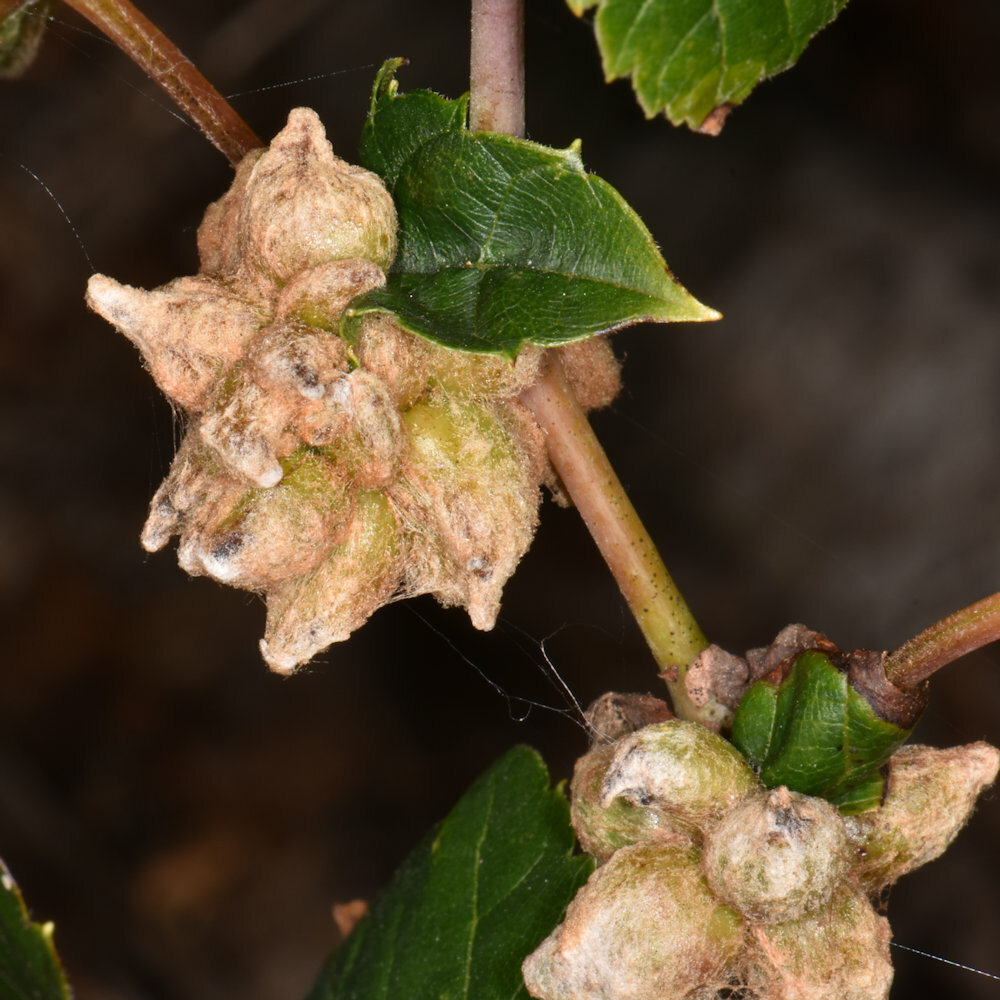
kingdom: Animalia
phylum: Arthropoda
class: Insecta
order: Diptera
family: Cecidomyiidae
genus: Ampelomyia
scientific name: Ampelomyia vitiscoryloides
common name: Grape filbert gall
